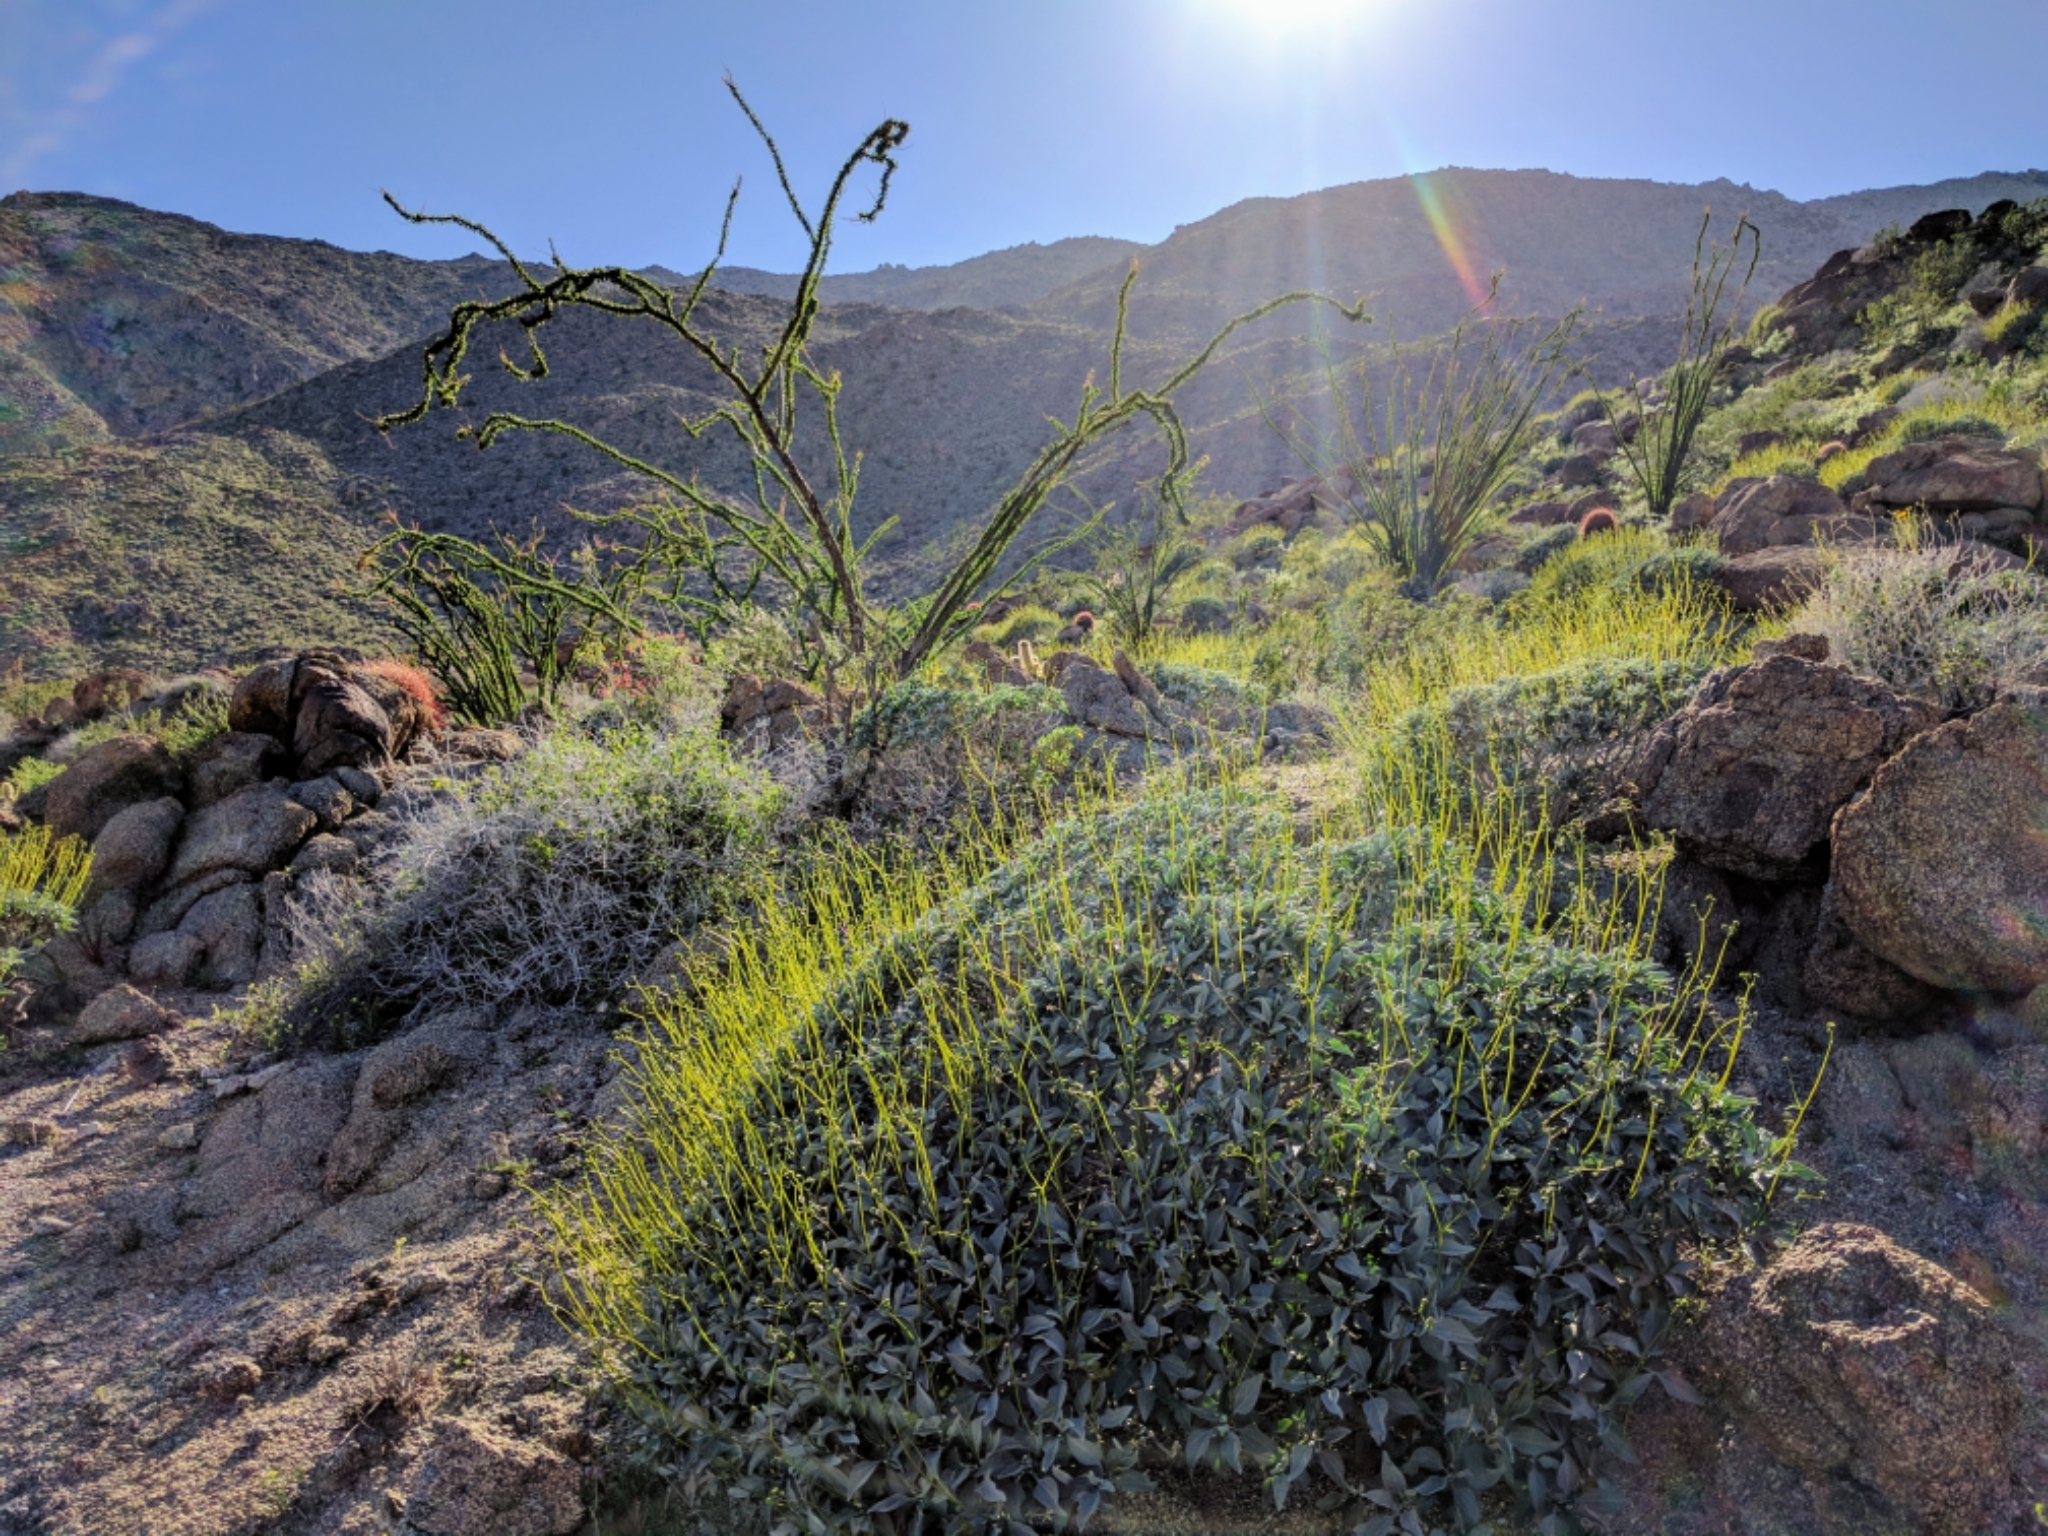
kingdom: Plantae
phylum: Tracheophyta
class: Magnoliopsida
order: Asterales
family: Asteraceae
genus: Encelia
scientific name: Encelia farinosa
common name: Brittlebush
